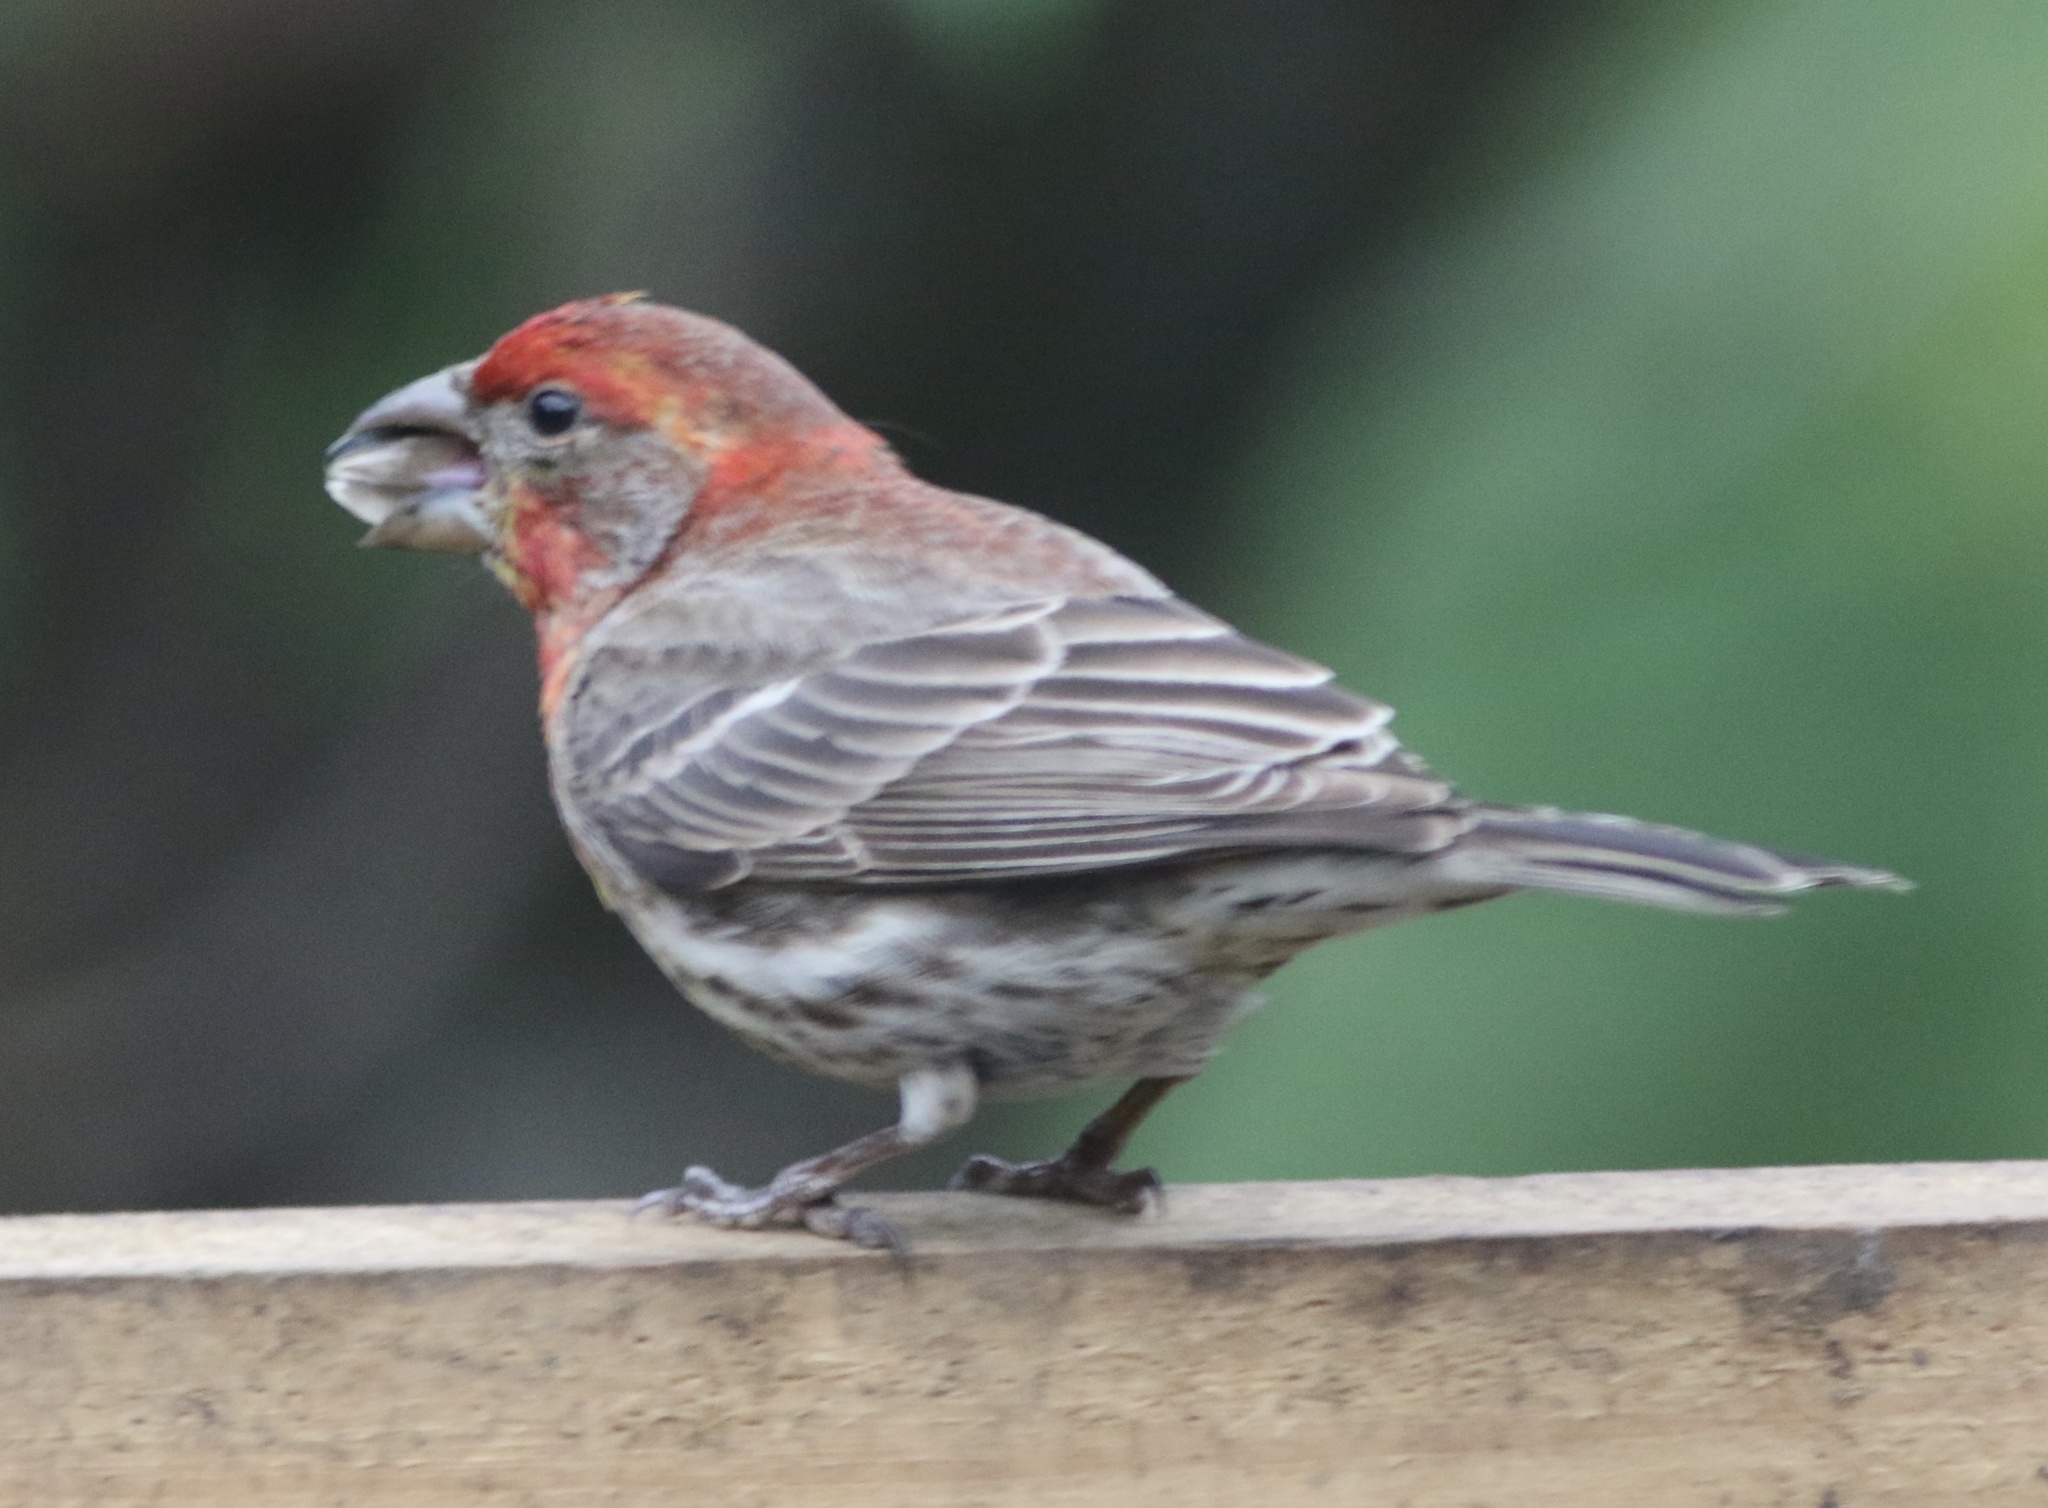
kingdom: Animalia
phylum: Chordata
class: Aves
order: Passeriformes
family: Fringillidae
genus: Haemorhous
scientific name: Haemorhous mexicanus
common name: House finch
